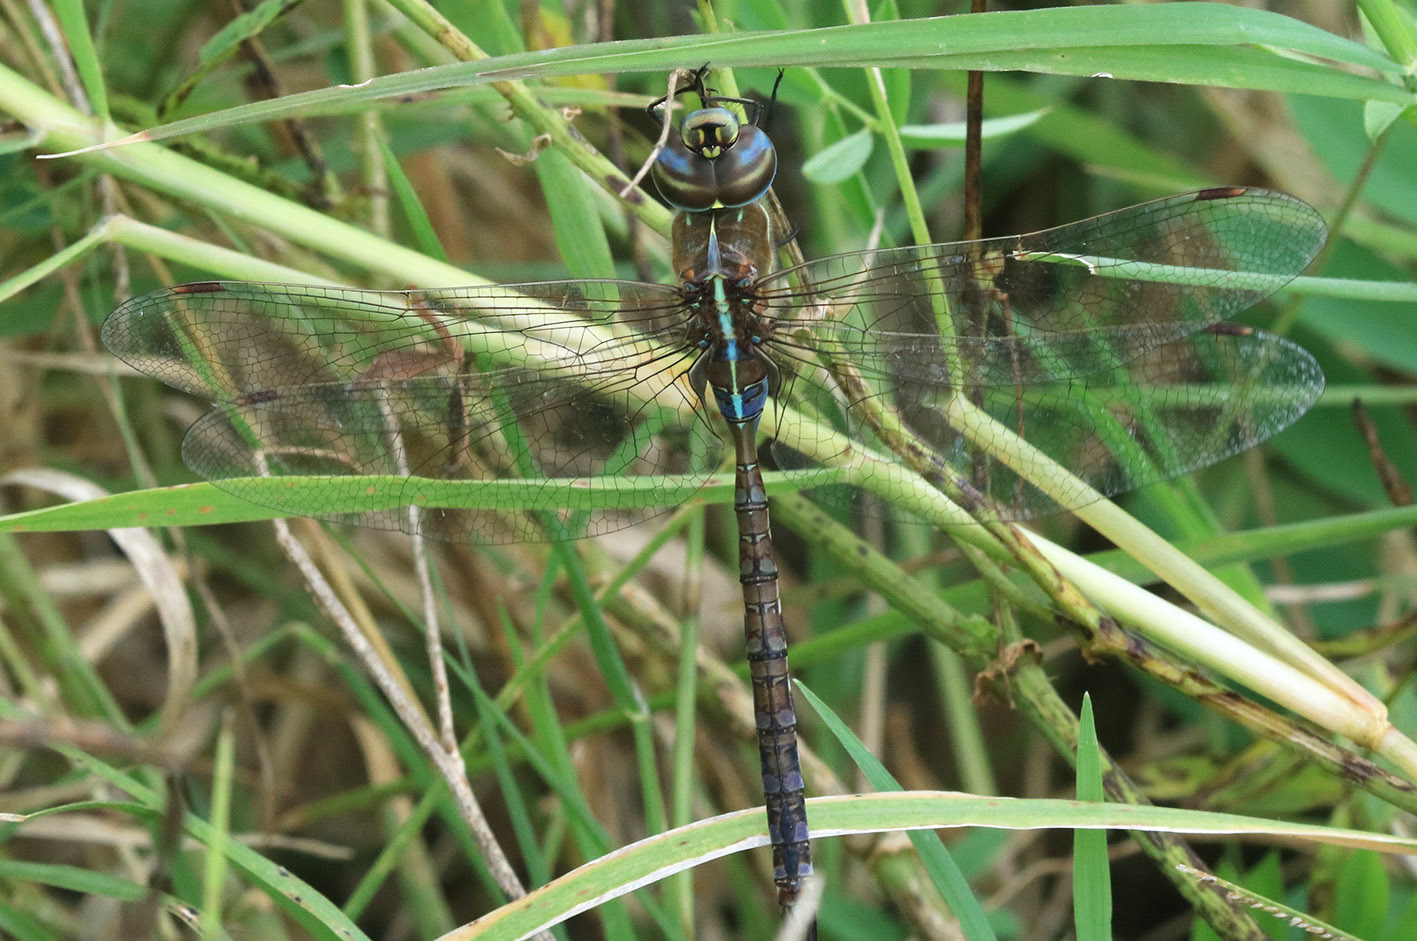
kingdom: Animalia
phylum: Arthropoda
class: Insecta
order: Odonata
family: Aeshnidae
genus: Rhionaeschna
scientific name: Rhionaeschna bonariensis
